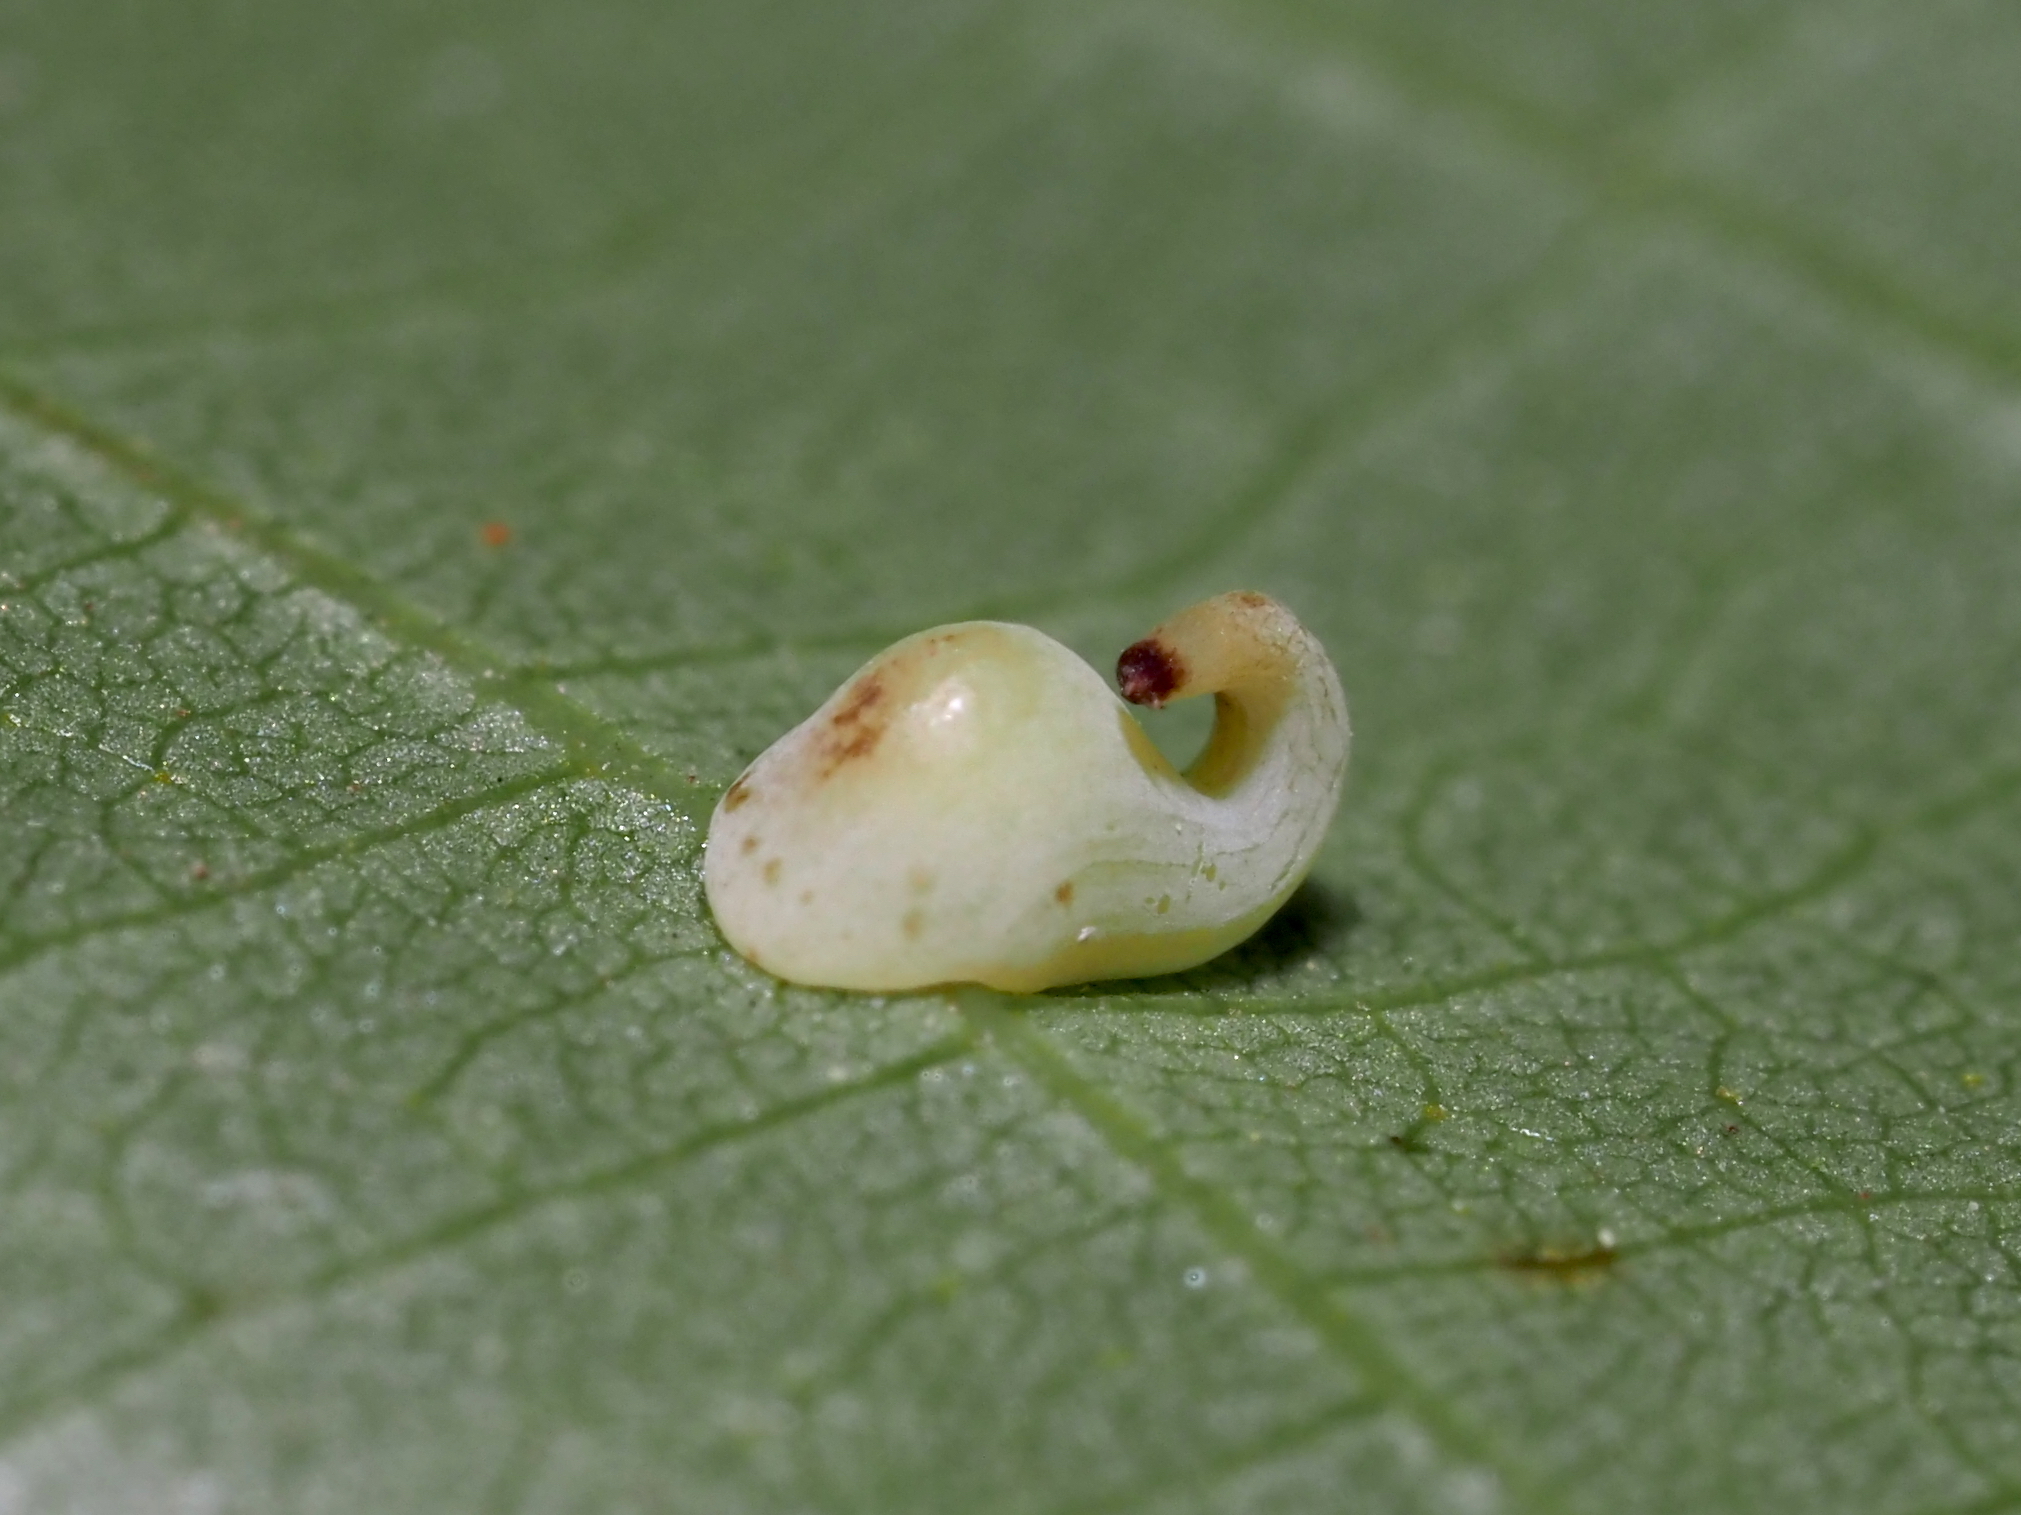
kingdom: Animalia
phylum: Arthropoda
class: Insecta
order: Diptera
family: Cecidomyiidae
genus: Caryomyia
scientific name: Caryomyia recurvata
